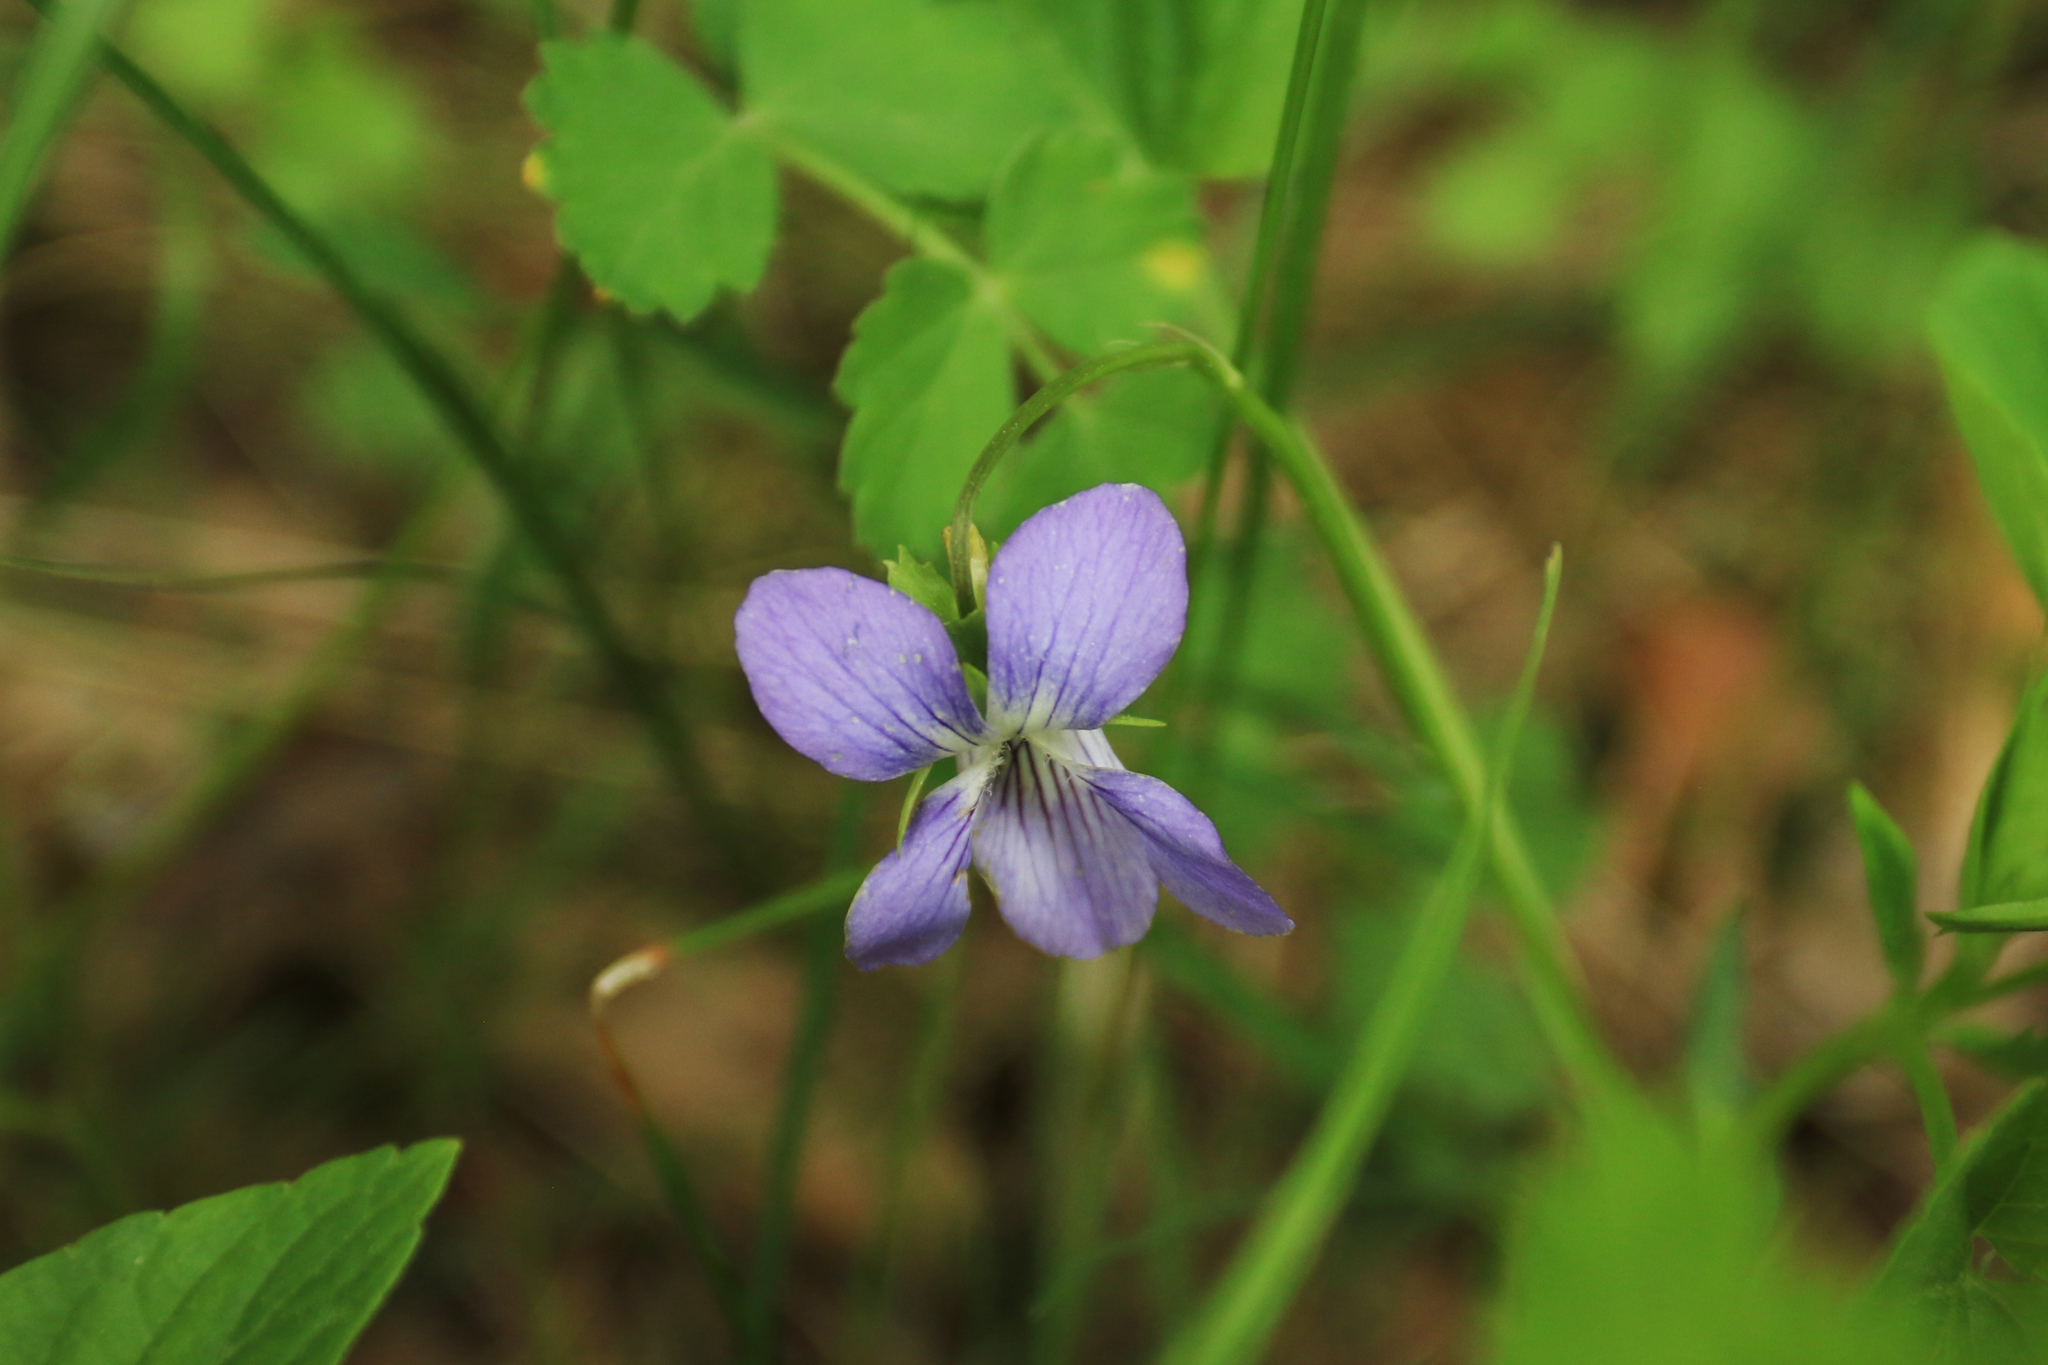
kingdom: Plantae
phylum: Tracheophyta
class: Magnoliopsida
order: Malpighiales
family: Violaceae
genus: Viola
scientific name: Viola canina
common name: Heath dog-violet
